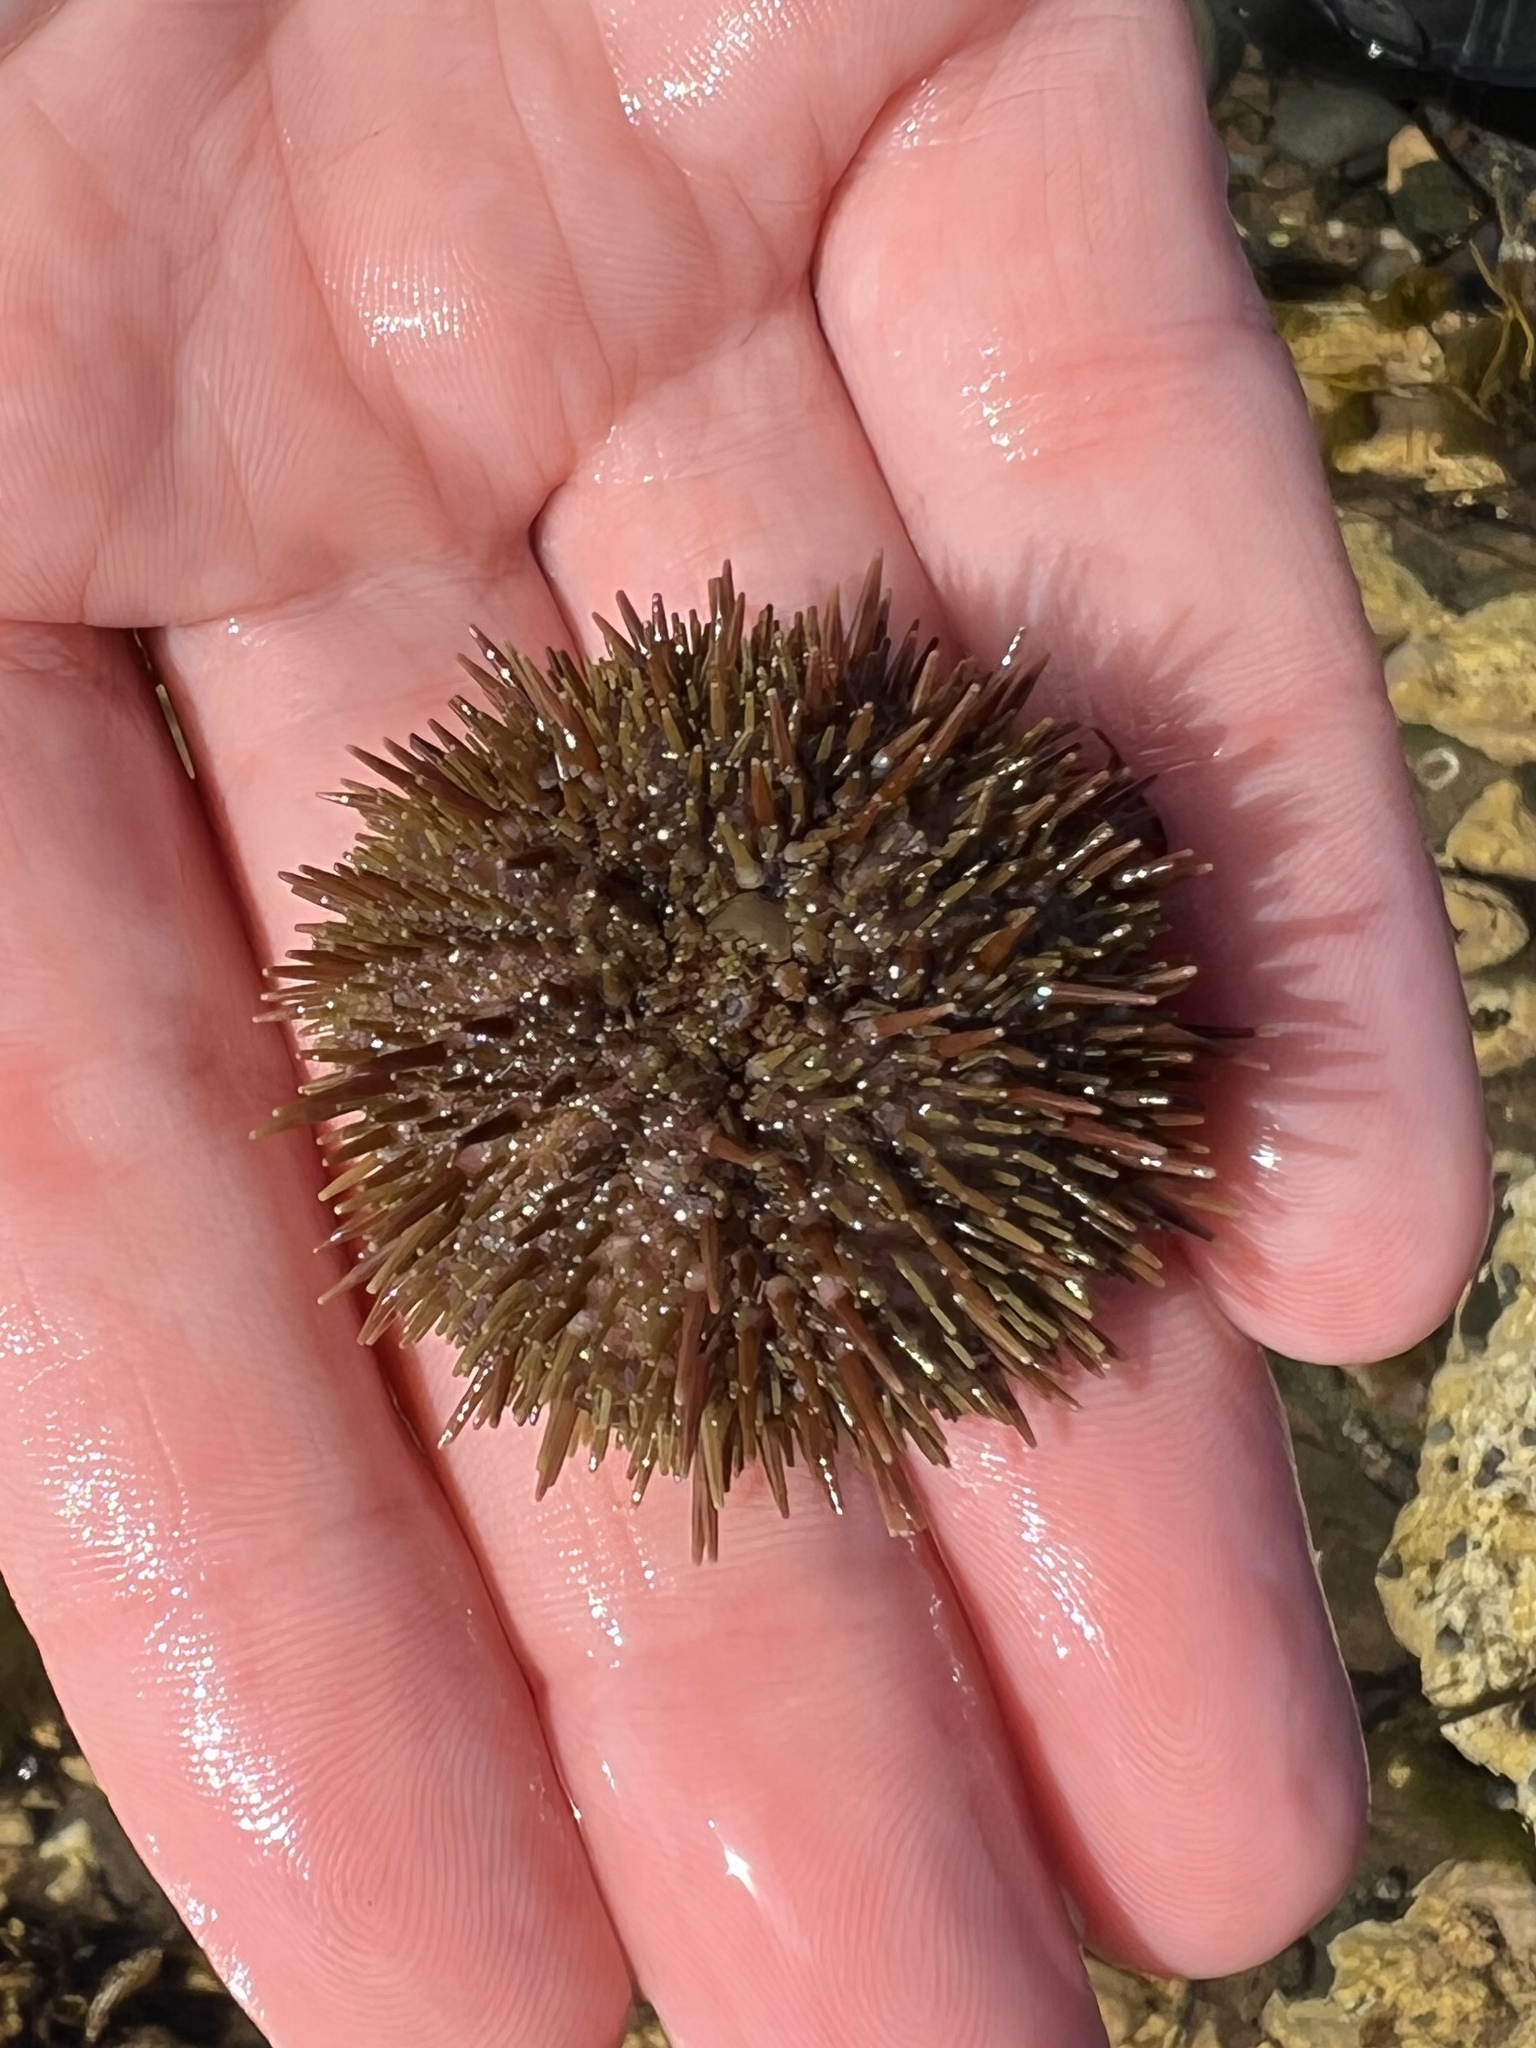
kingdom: Animalia
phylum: Echinodermata
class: Echinoidea
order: Camarodonta
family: Strongylocentrotidae
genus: Strongylocentrotus
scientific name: Strongylocentrotus droebachiensis
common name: Northern sea urchin
